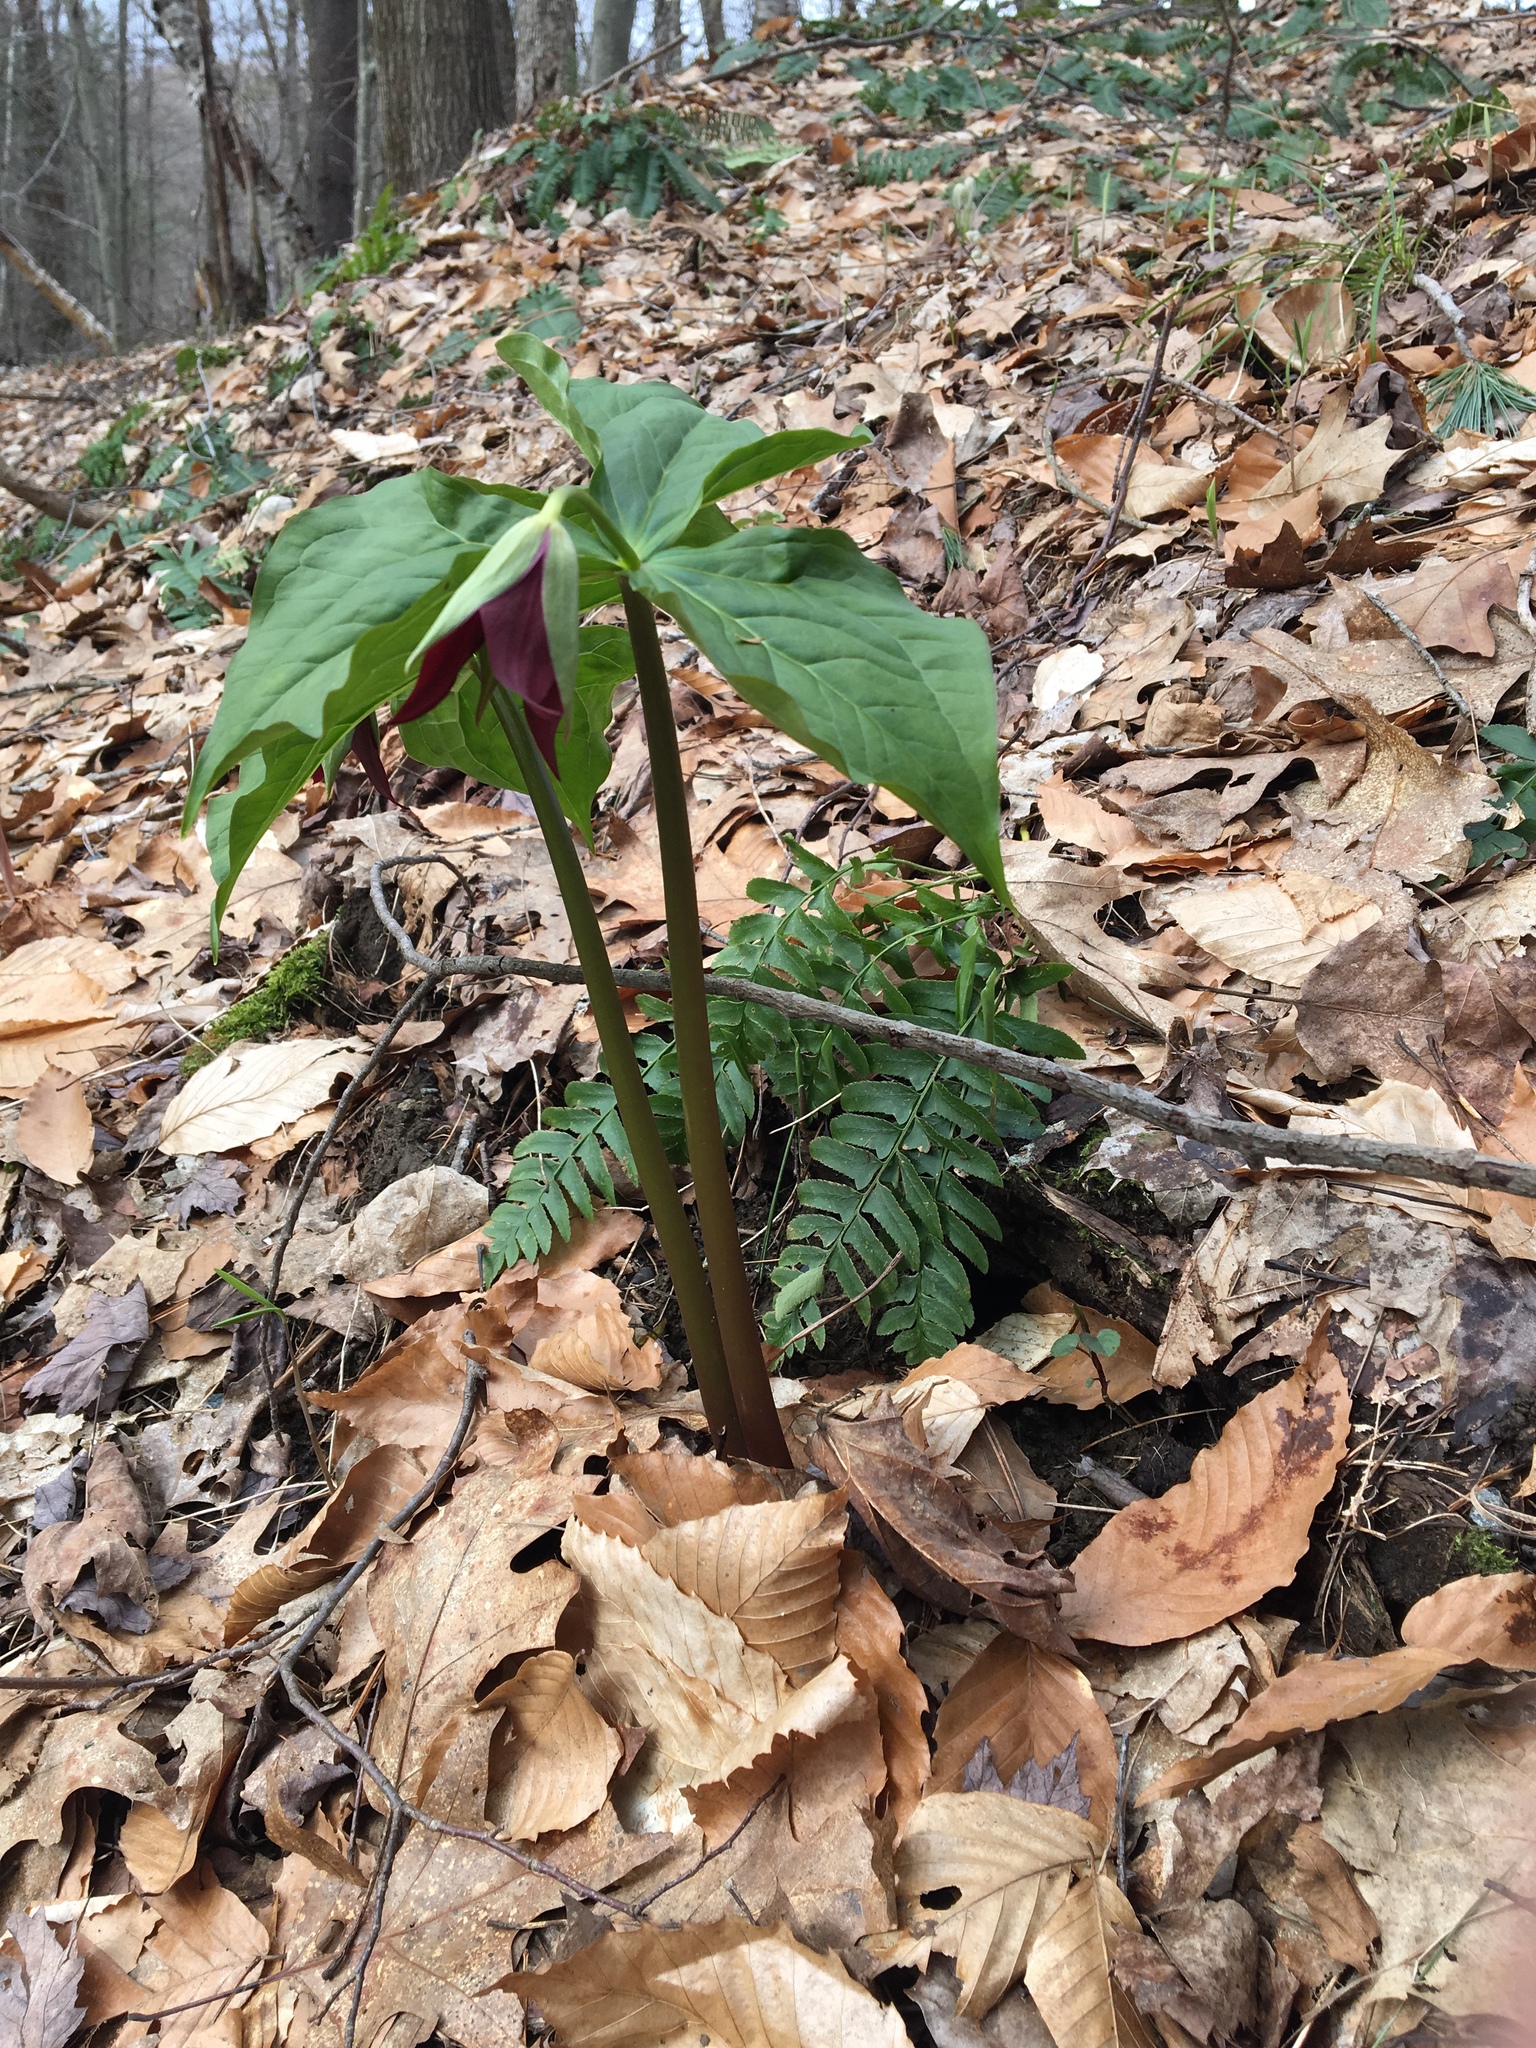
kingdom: Plantae
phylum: Tracheophyta
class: Liliopsida
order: Liliales
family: Melanthiaceae
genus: Trillium
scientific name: Trillium erectum
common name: Purple trillium
